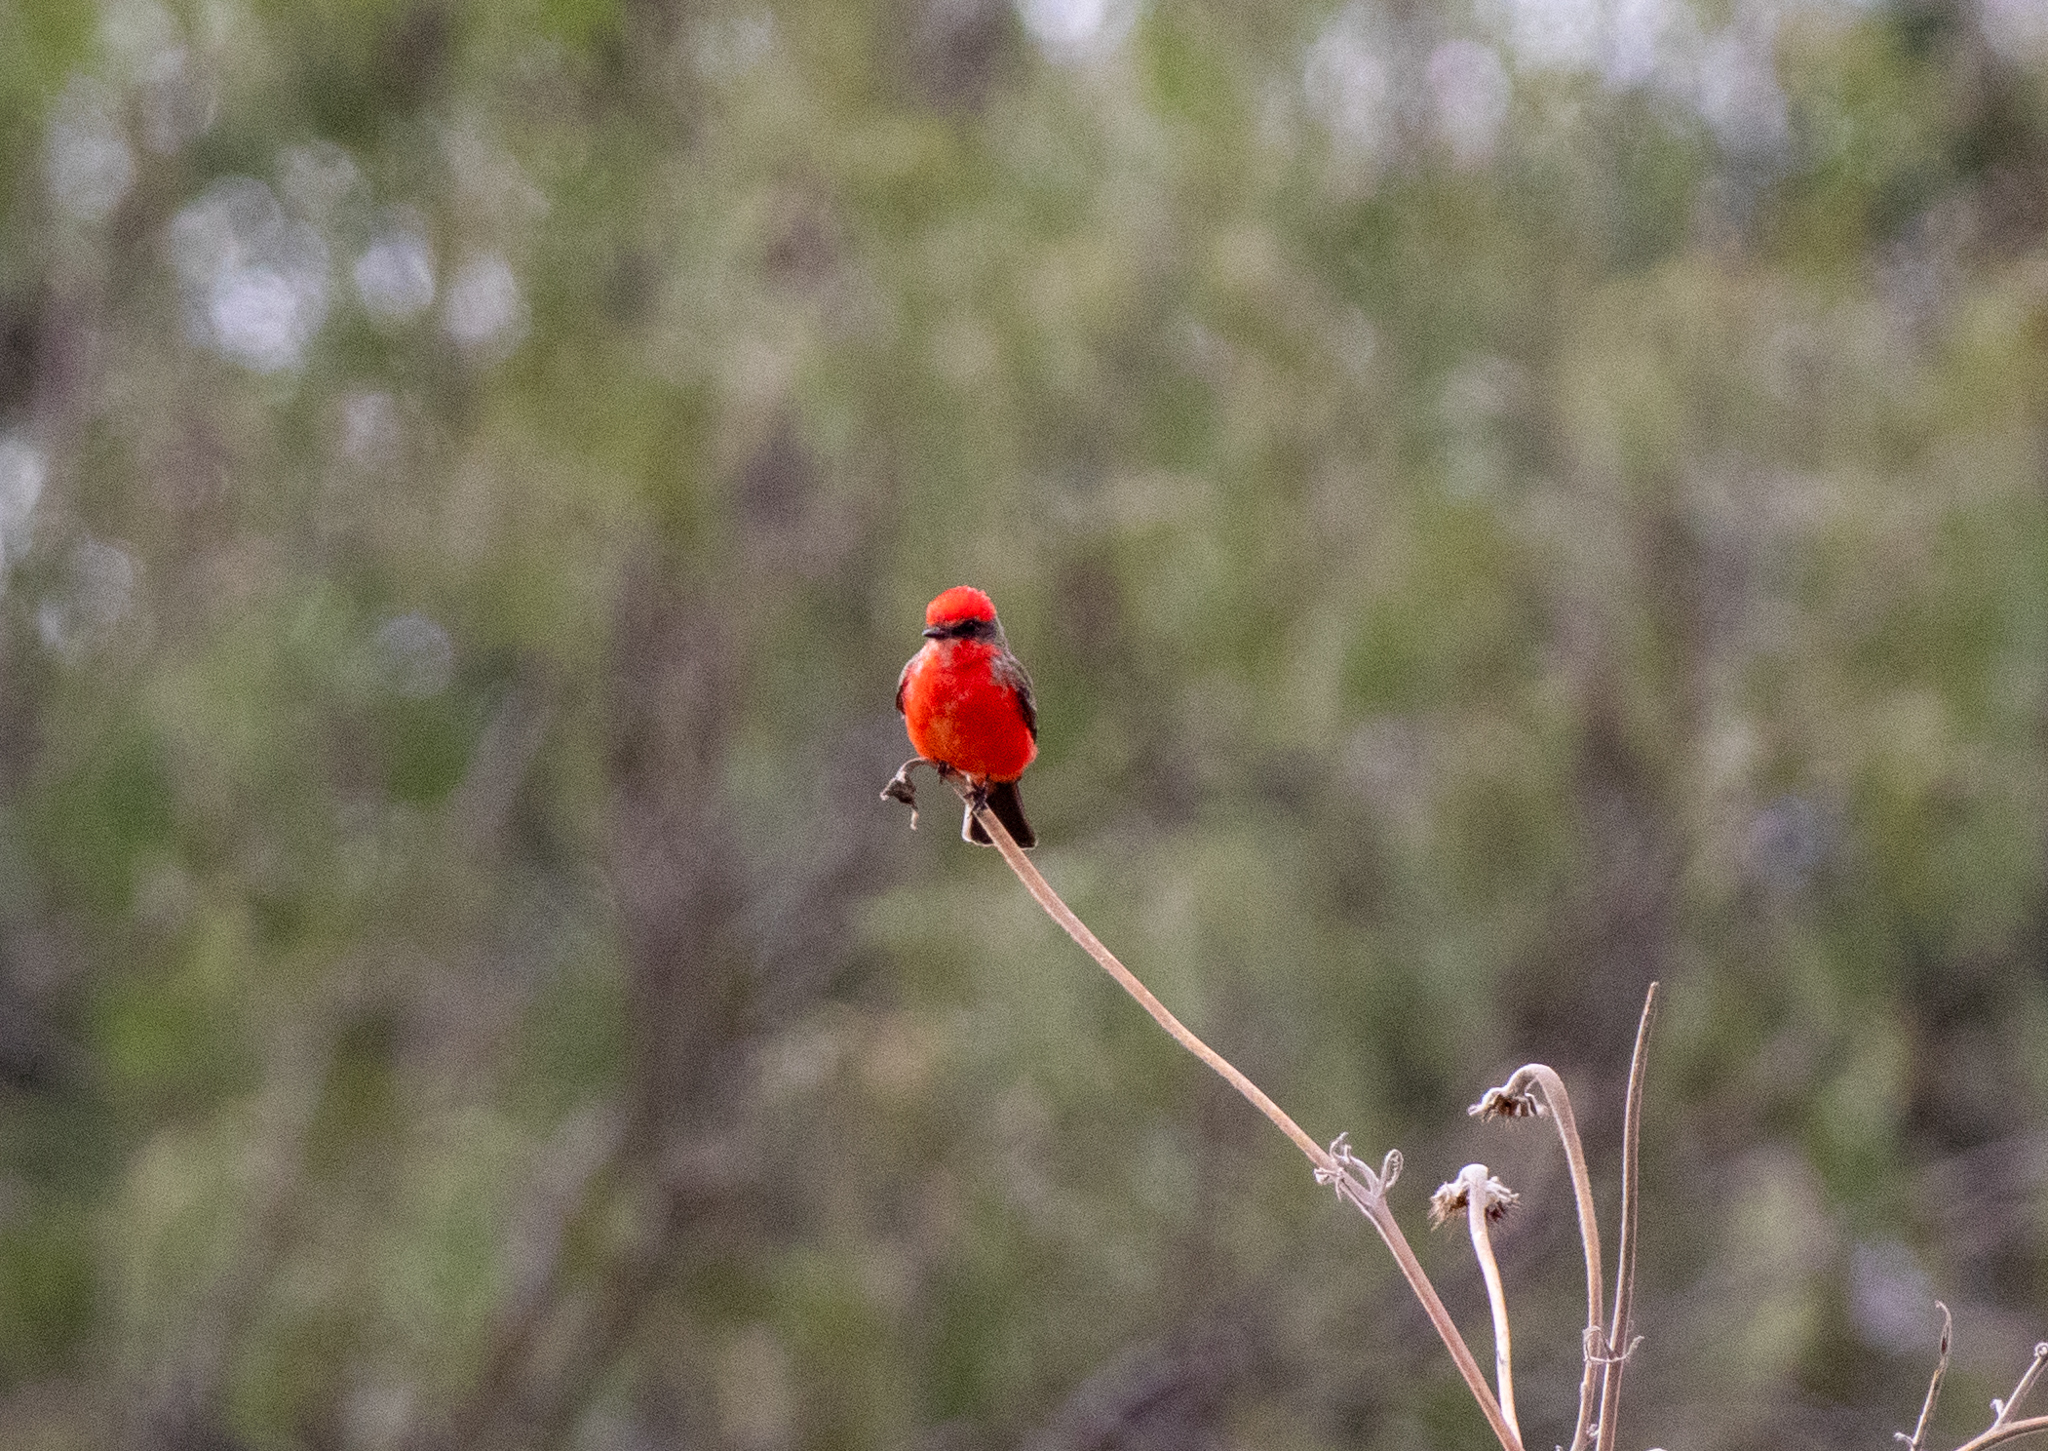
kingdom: Animalia
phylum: Chordata
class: Aves
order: Passeriformes
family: Tyrannidae
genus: Pyrocephalus
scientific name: Pyrocephalus rubinus
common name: Vermilion flycatcher
